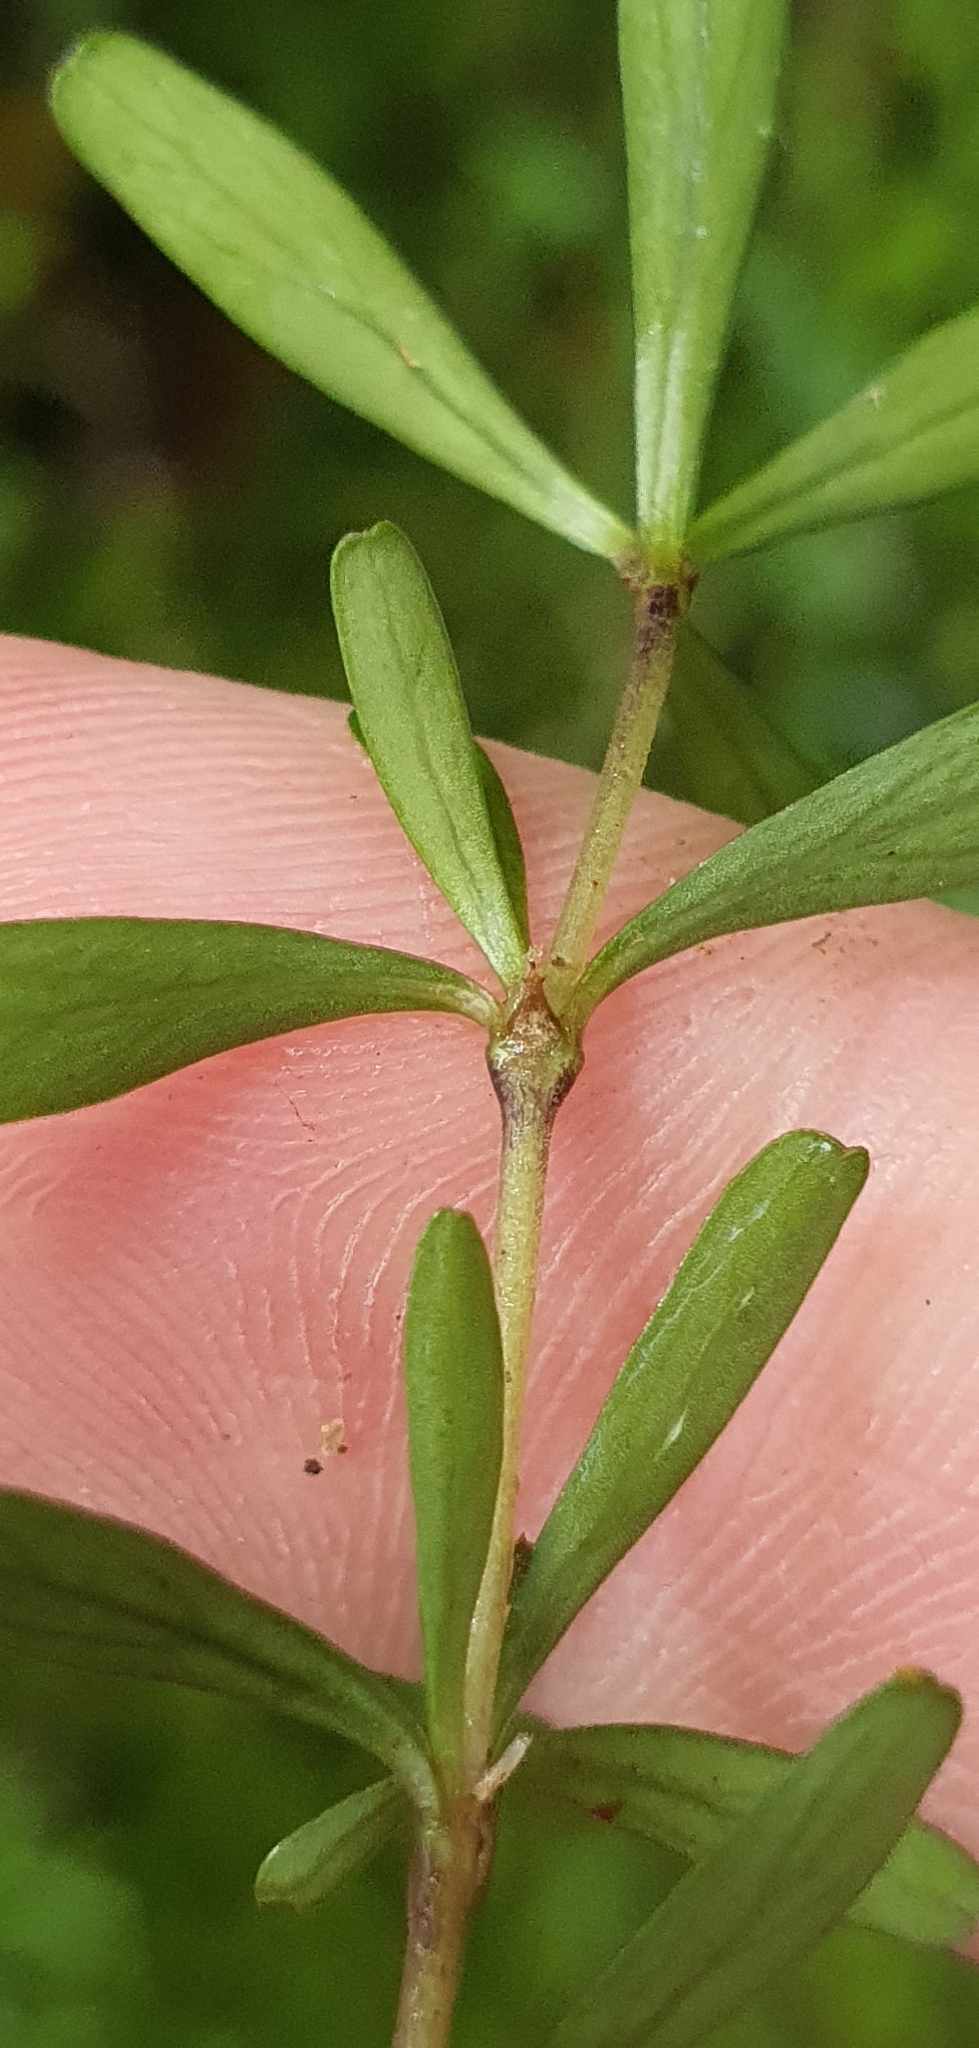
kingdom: Plantae
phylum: Tracheophyta
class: Magnoliopsida
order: Gentianales
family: Rubiaceae
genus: Coprosma
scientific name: Coprosma cuneata
